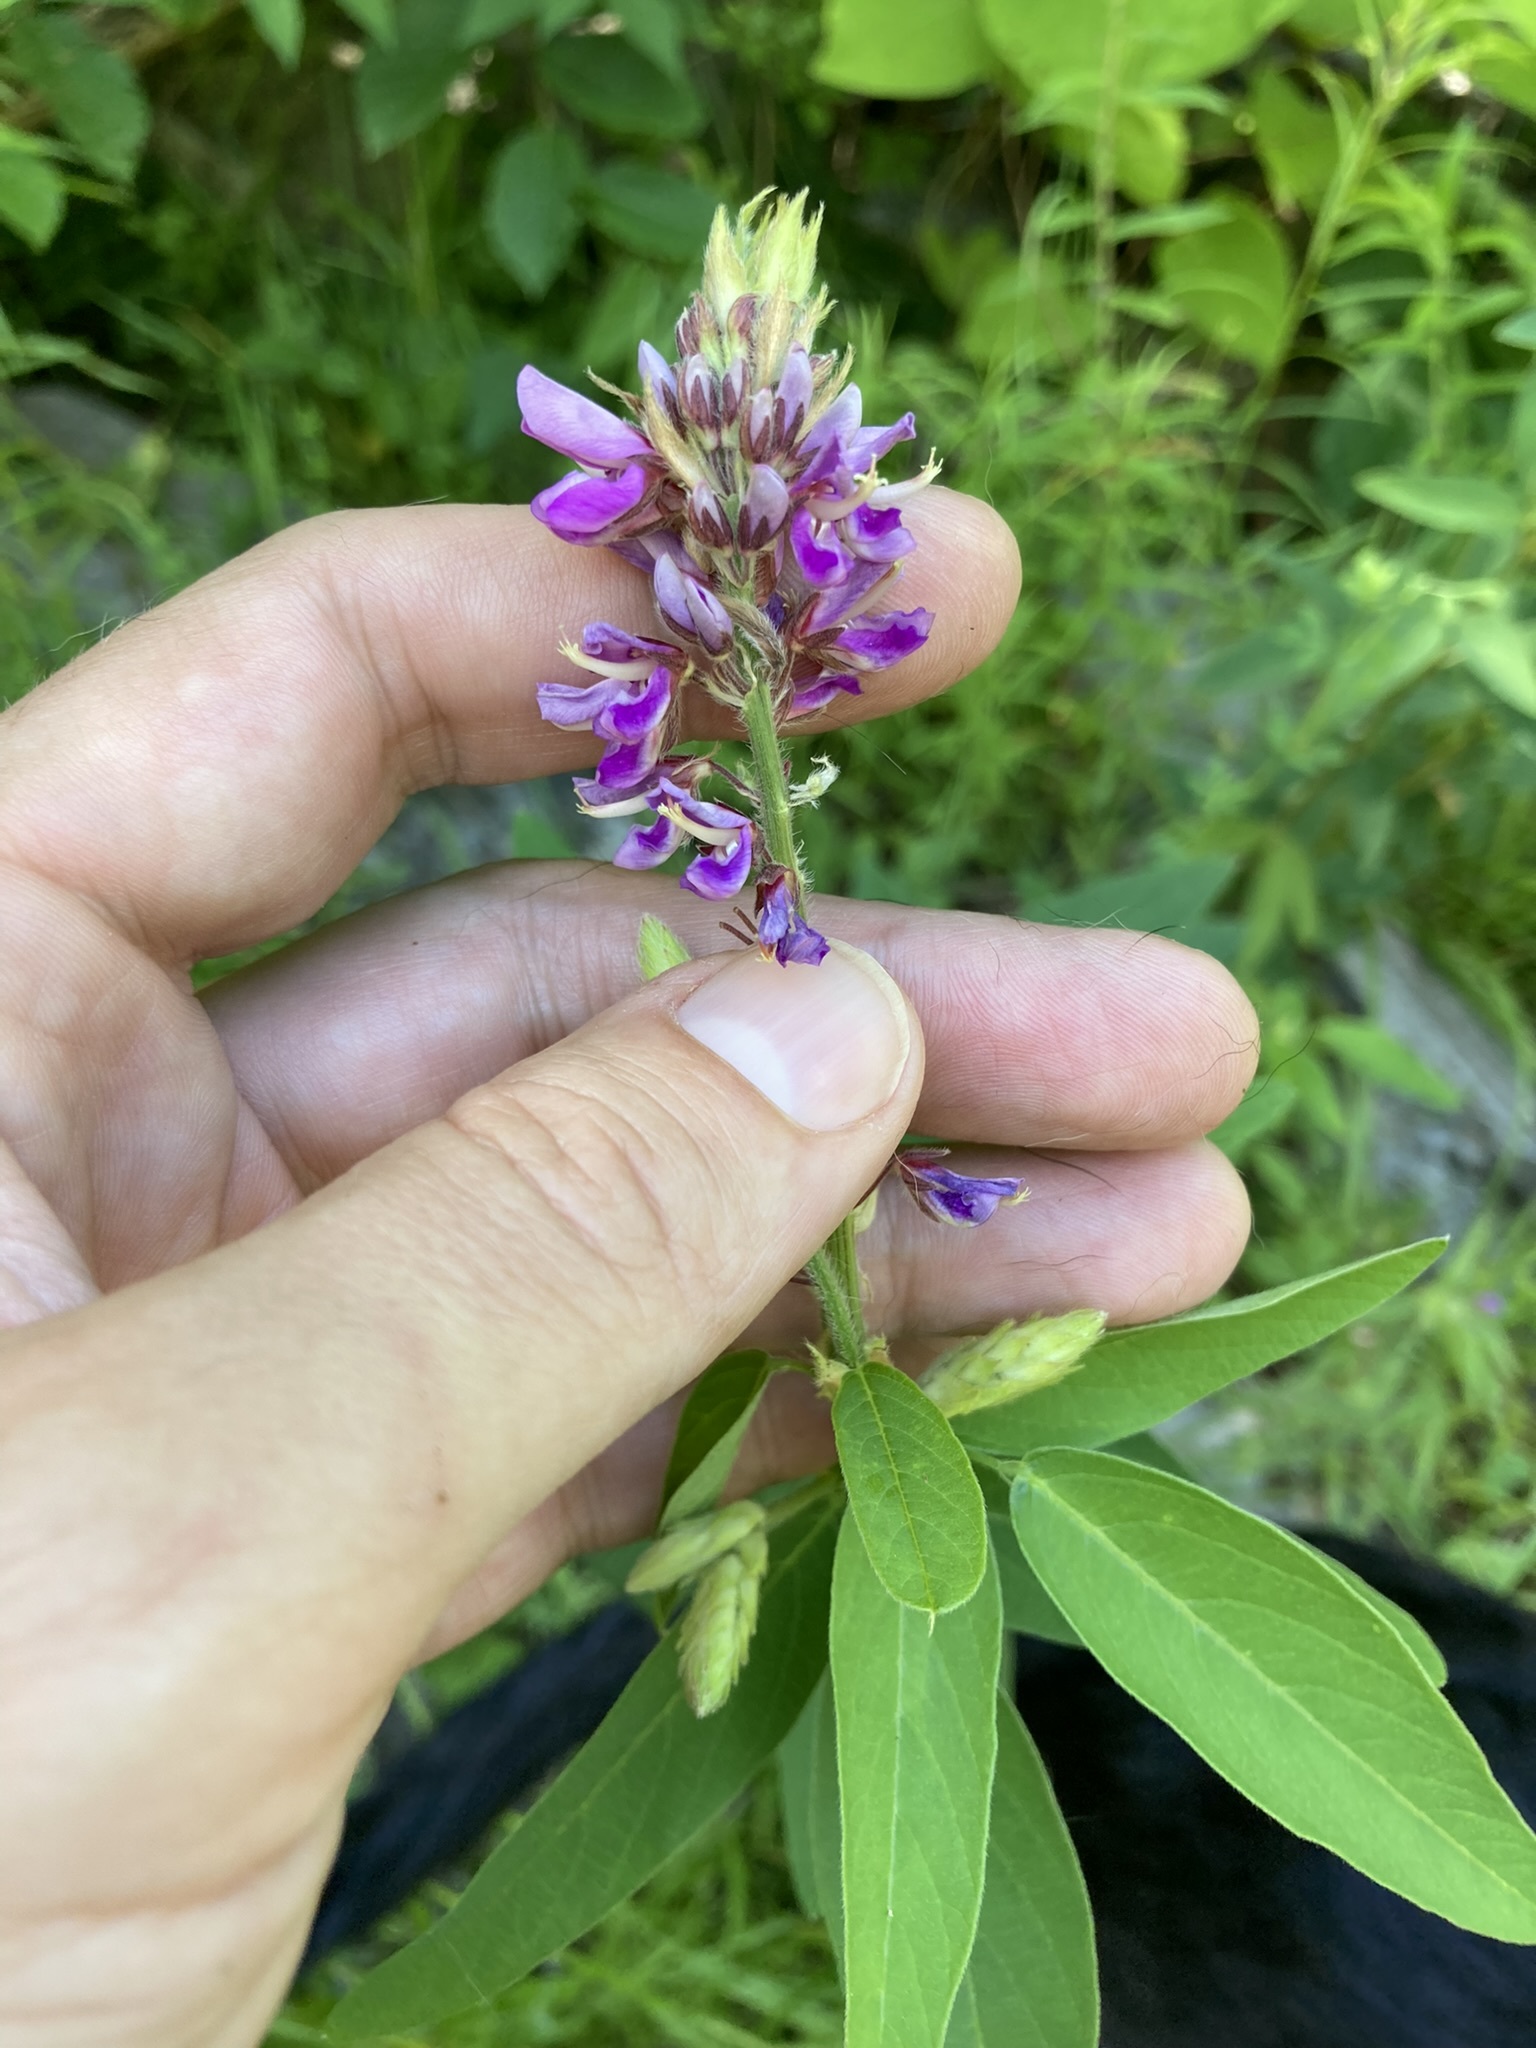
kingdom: Plantae
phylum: Tracheophyta
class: Magnoliopsida
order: Fabales
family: Fabaceae
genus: Desmodium
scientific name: Desmodium canadense
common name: Canada tick-trefoil
